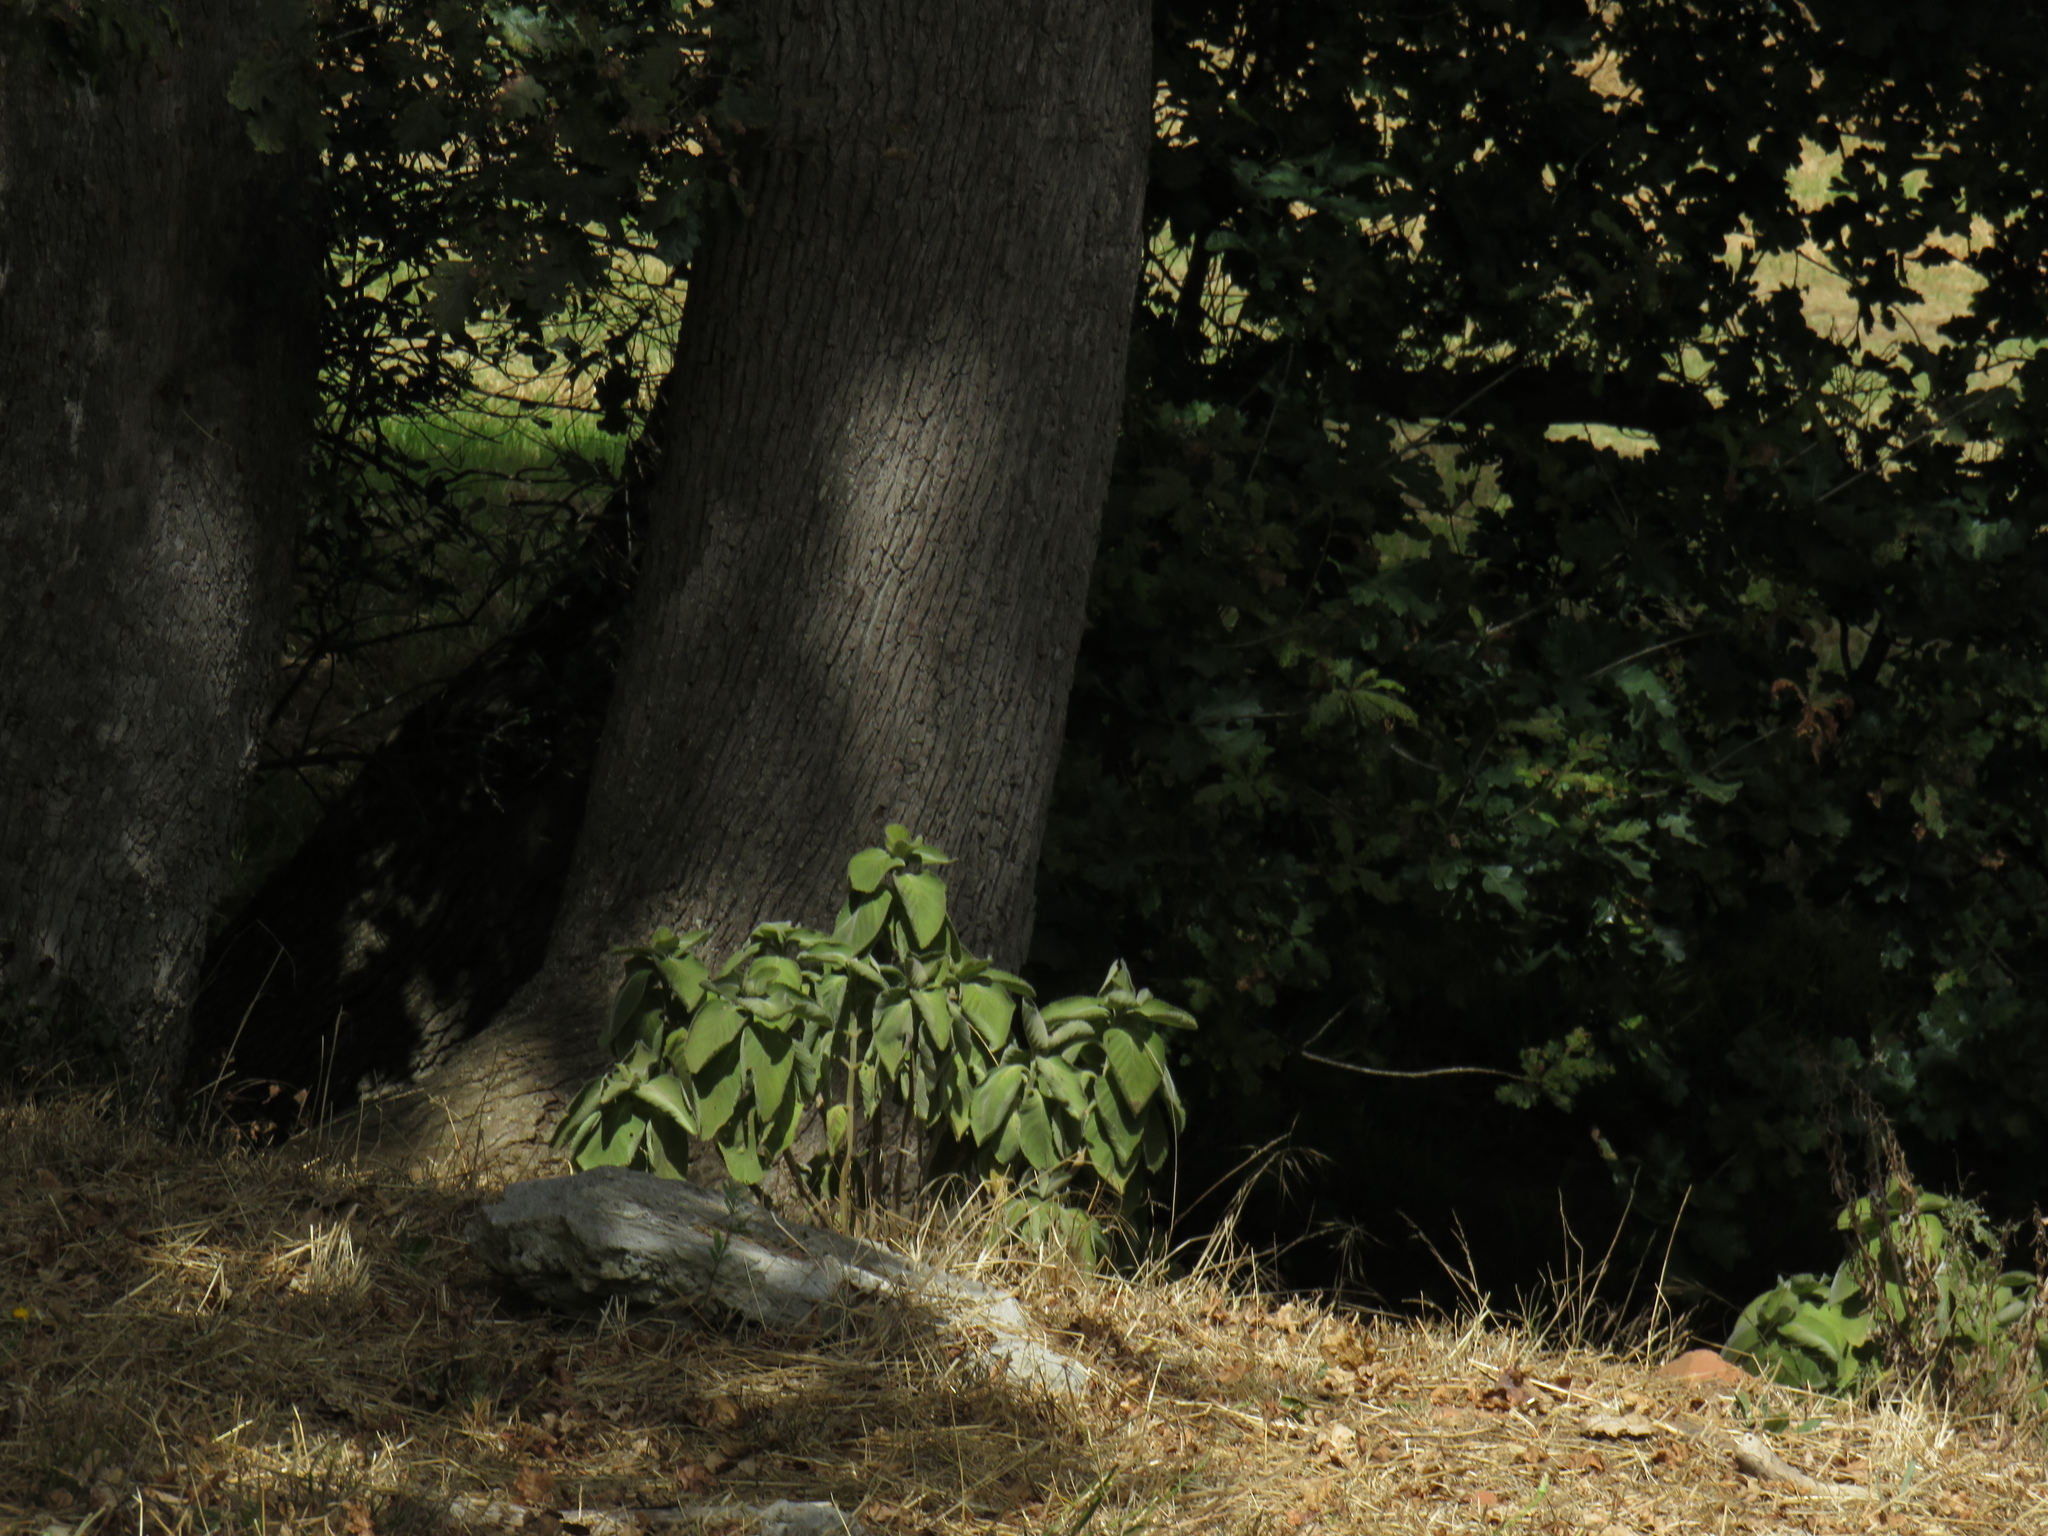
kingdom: Plantae
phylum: Tracheophyta
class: Magnoliopsida
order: Lamiales
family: Lamiaceae
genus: Coleus
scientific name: Coleus barbatus
